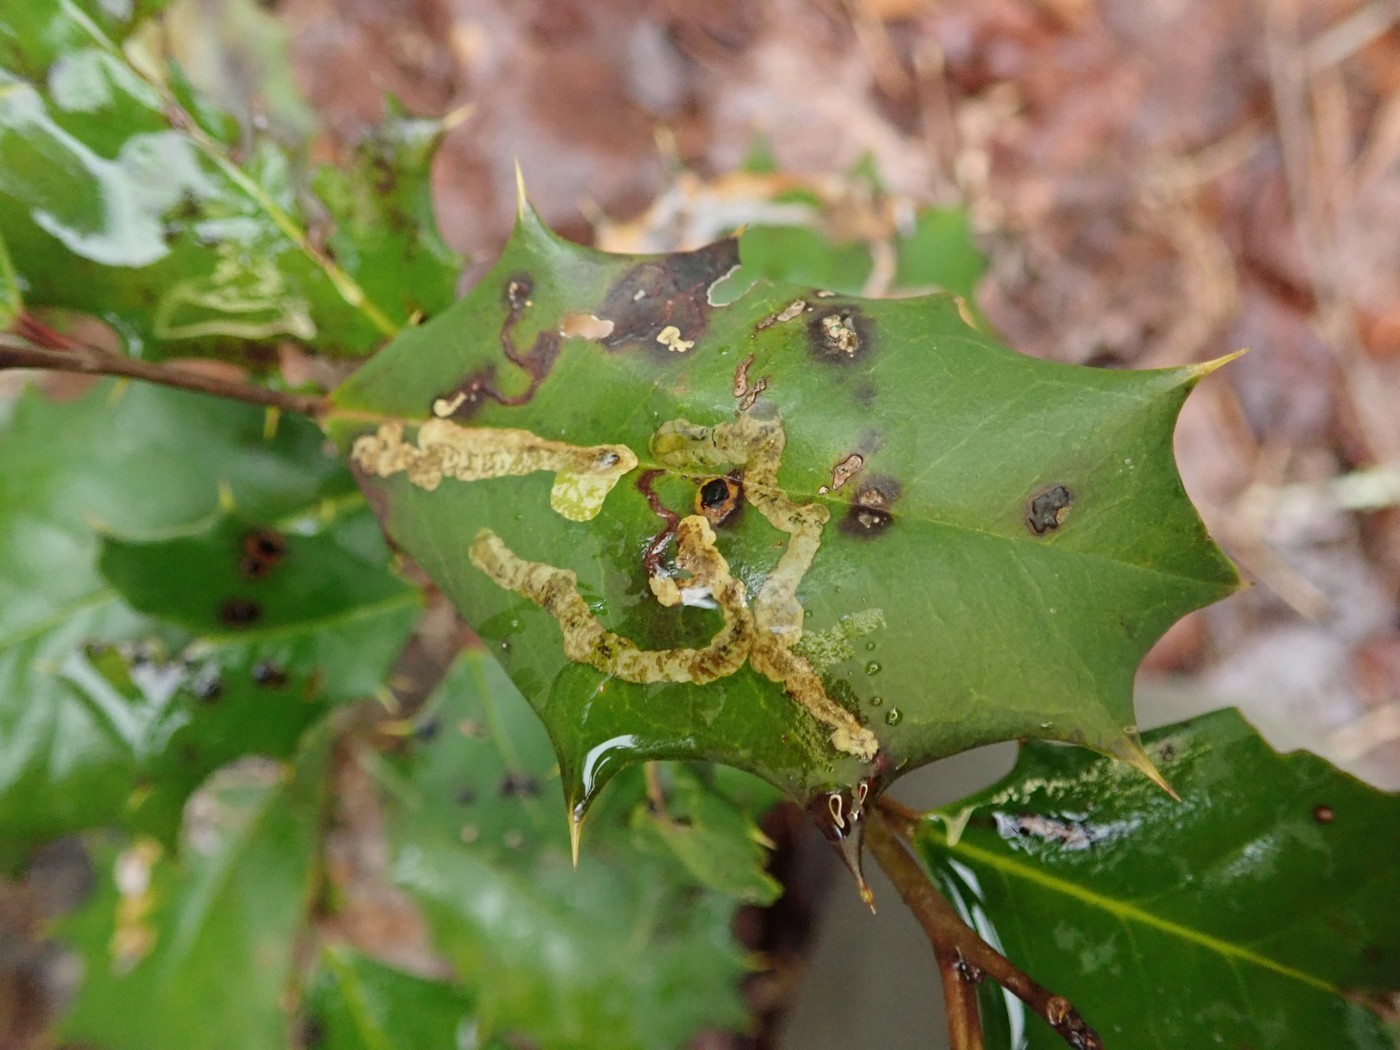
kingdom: Animalia
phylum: Arthropoda
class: Insecta
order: Diptera
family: Agromyzidae
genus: Phytomyza
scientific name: Phytomyza ilicicola
